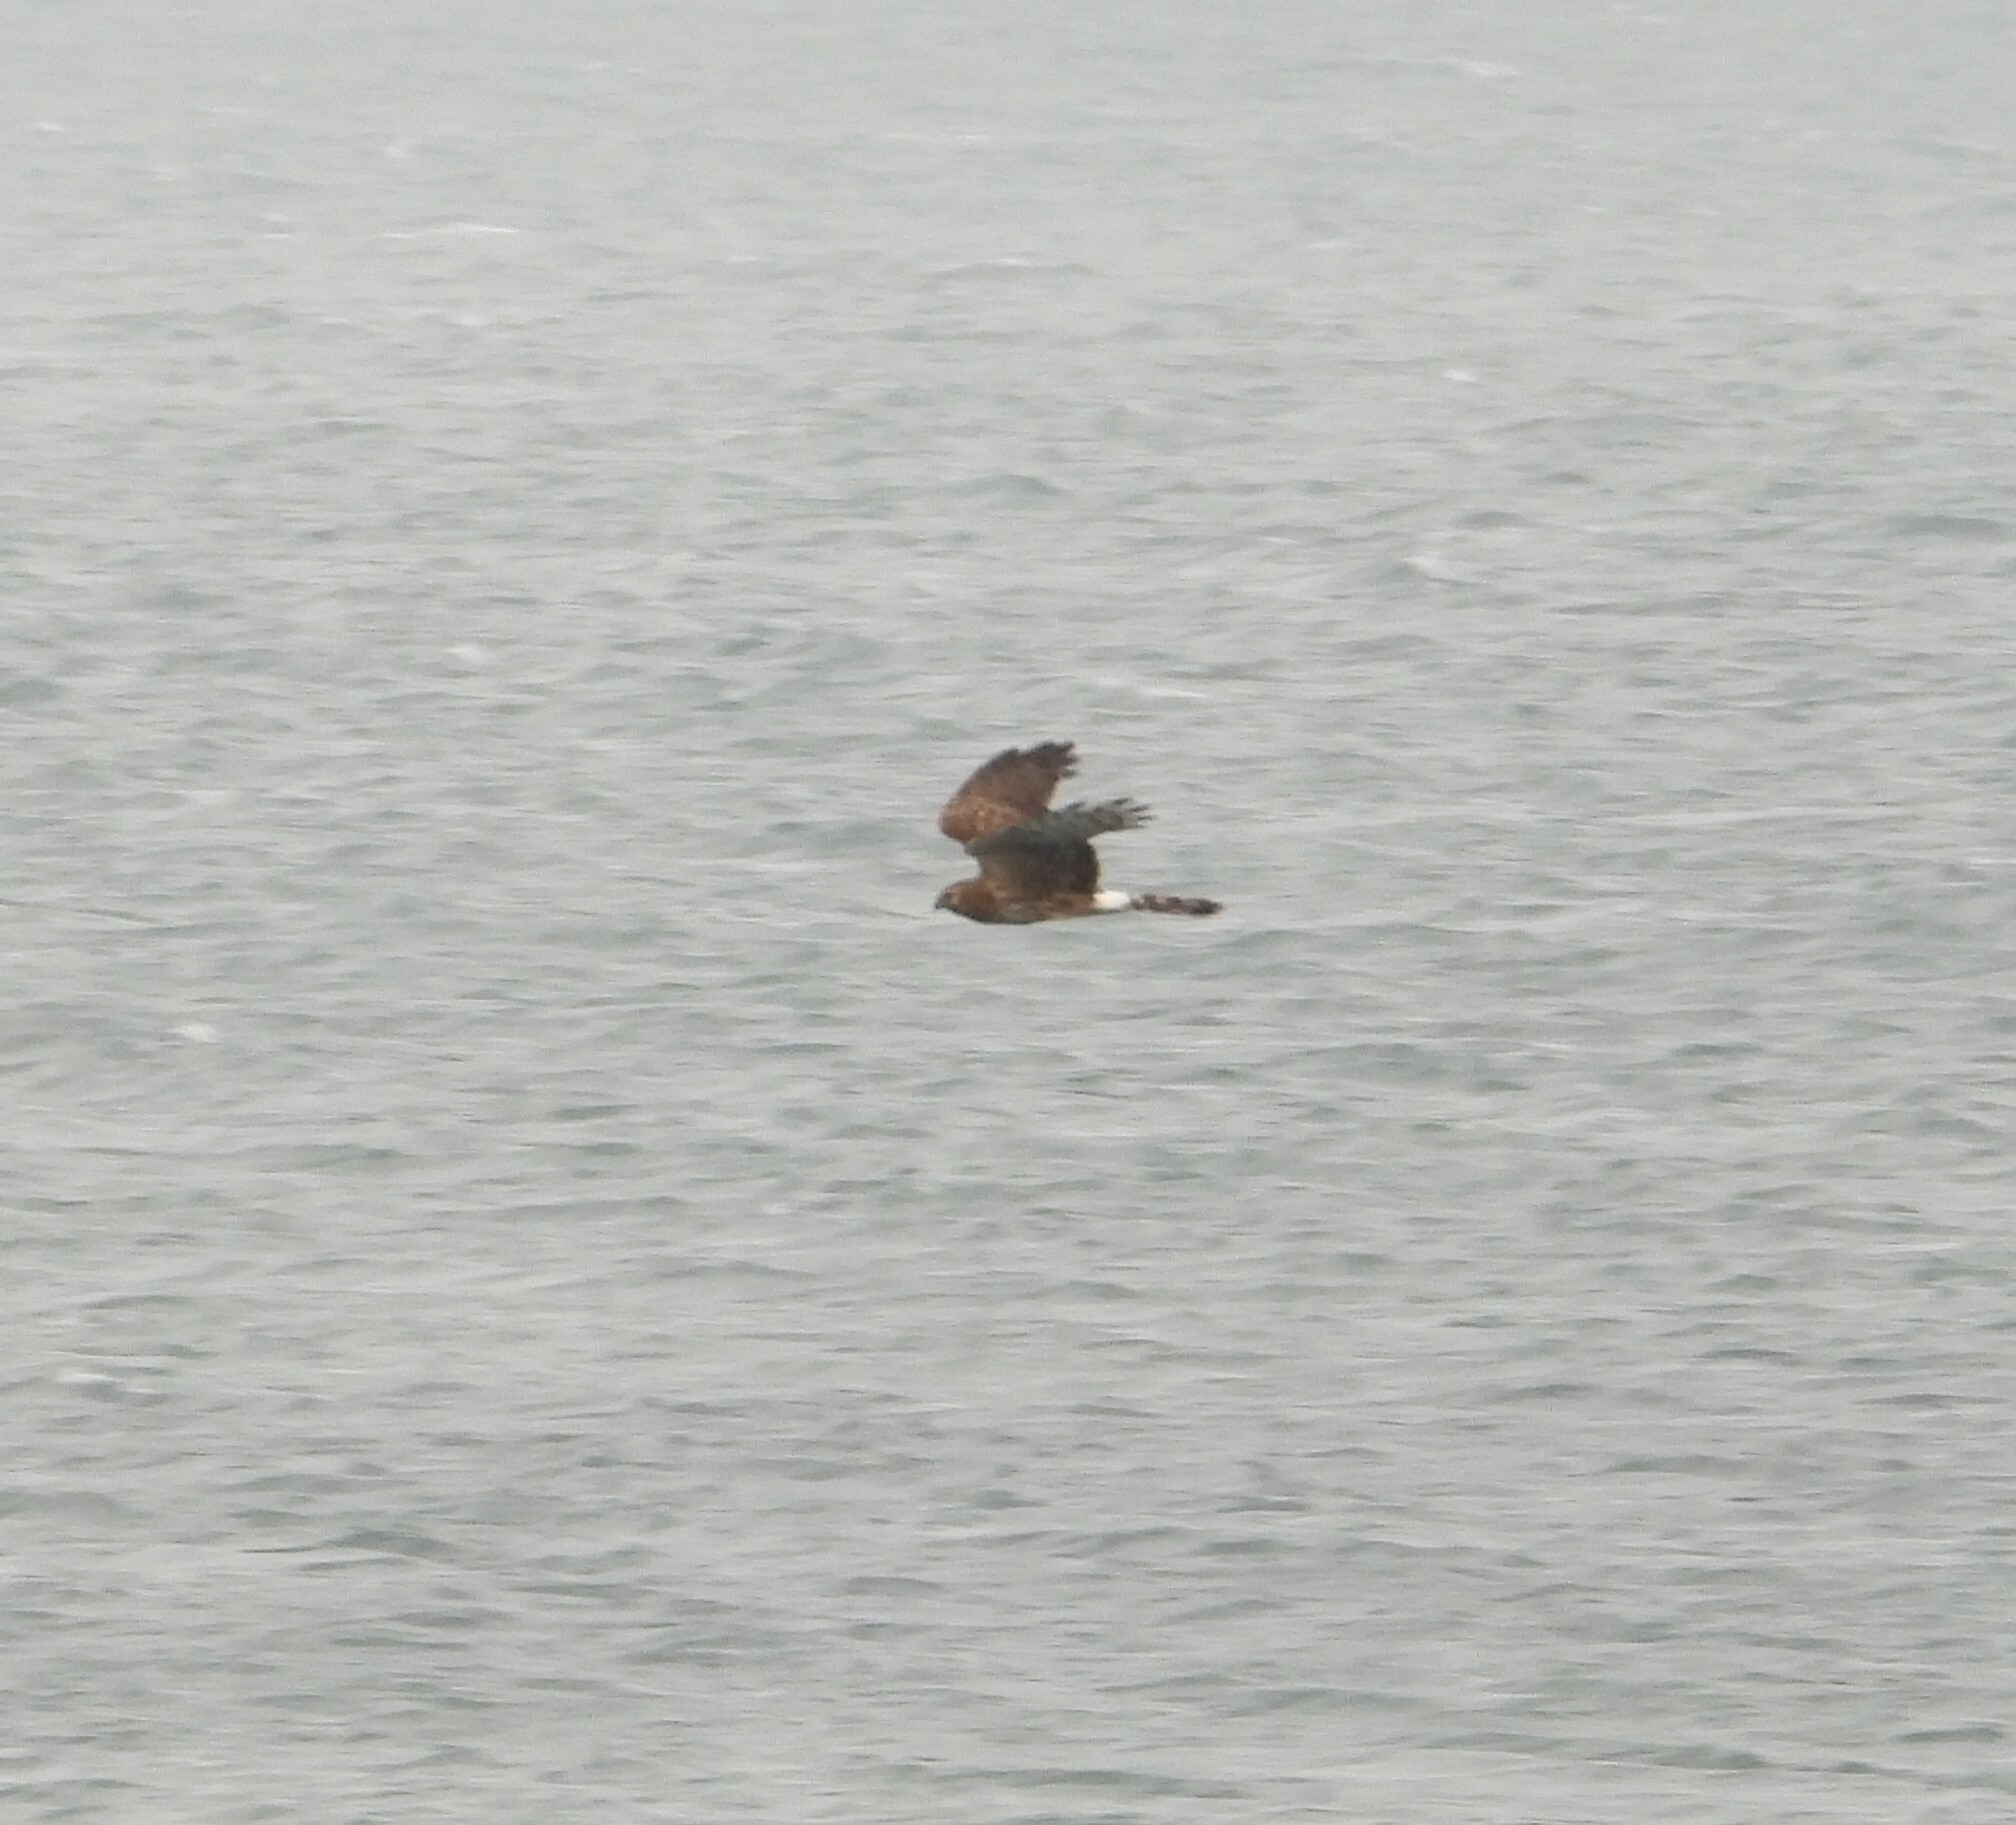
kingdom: Animalia
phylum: Chordata
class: Aves
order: Accipitriformes
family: Accipitridae
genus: Circus
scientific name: Circus cyaneus
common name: Hen harrier
